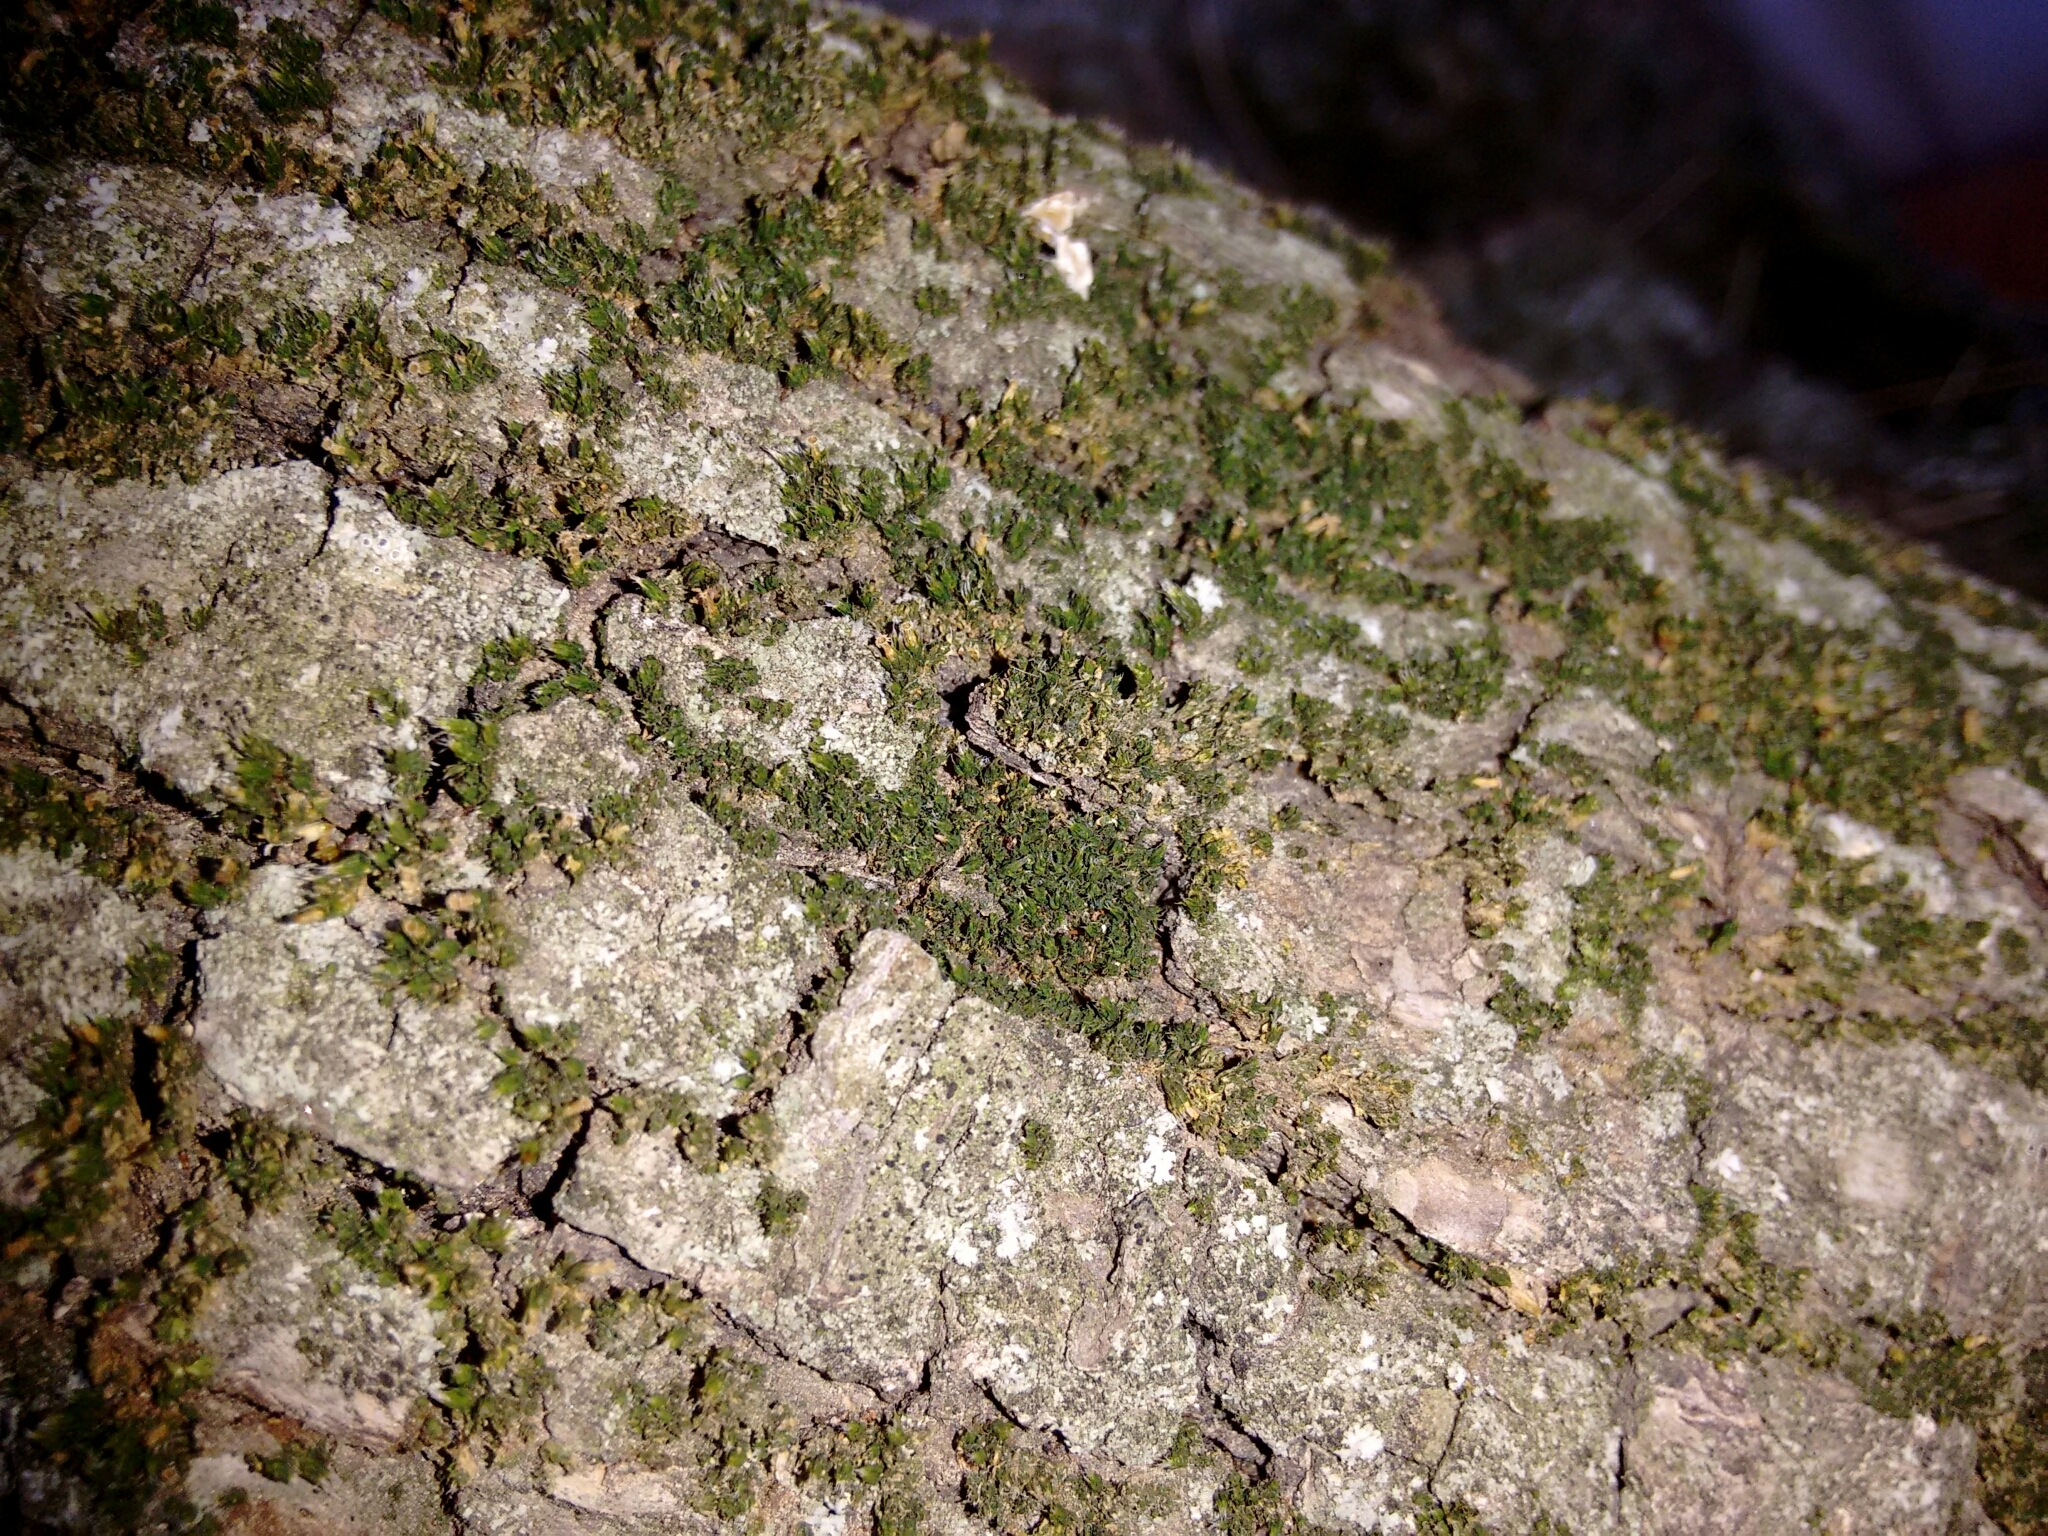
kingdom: Plantae
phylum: Bryophyta
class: Bryopsida
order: Orthotrichales
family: Orthotrichaceae
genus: Orthotrichum
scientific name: Orthotrichum diaphanum
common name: White-tipped bristle-moss
